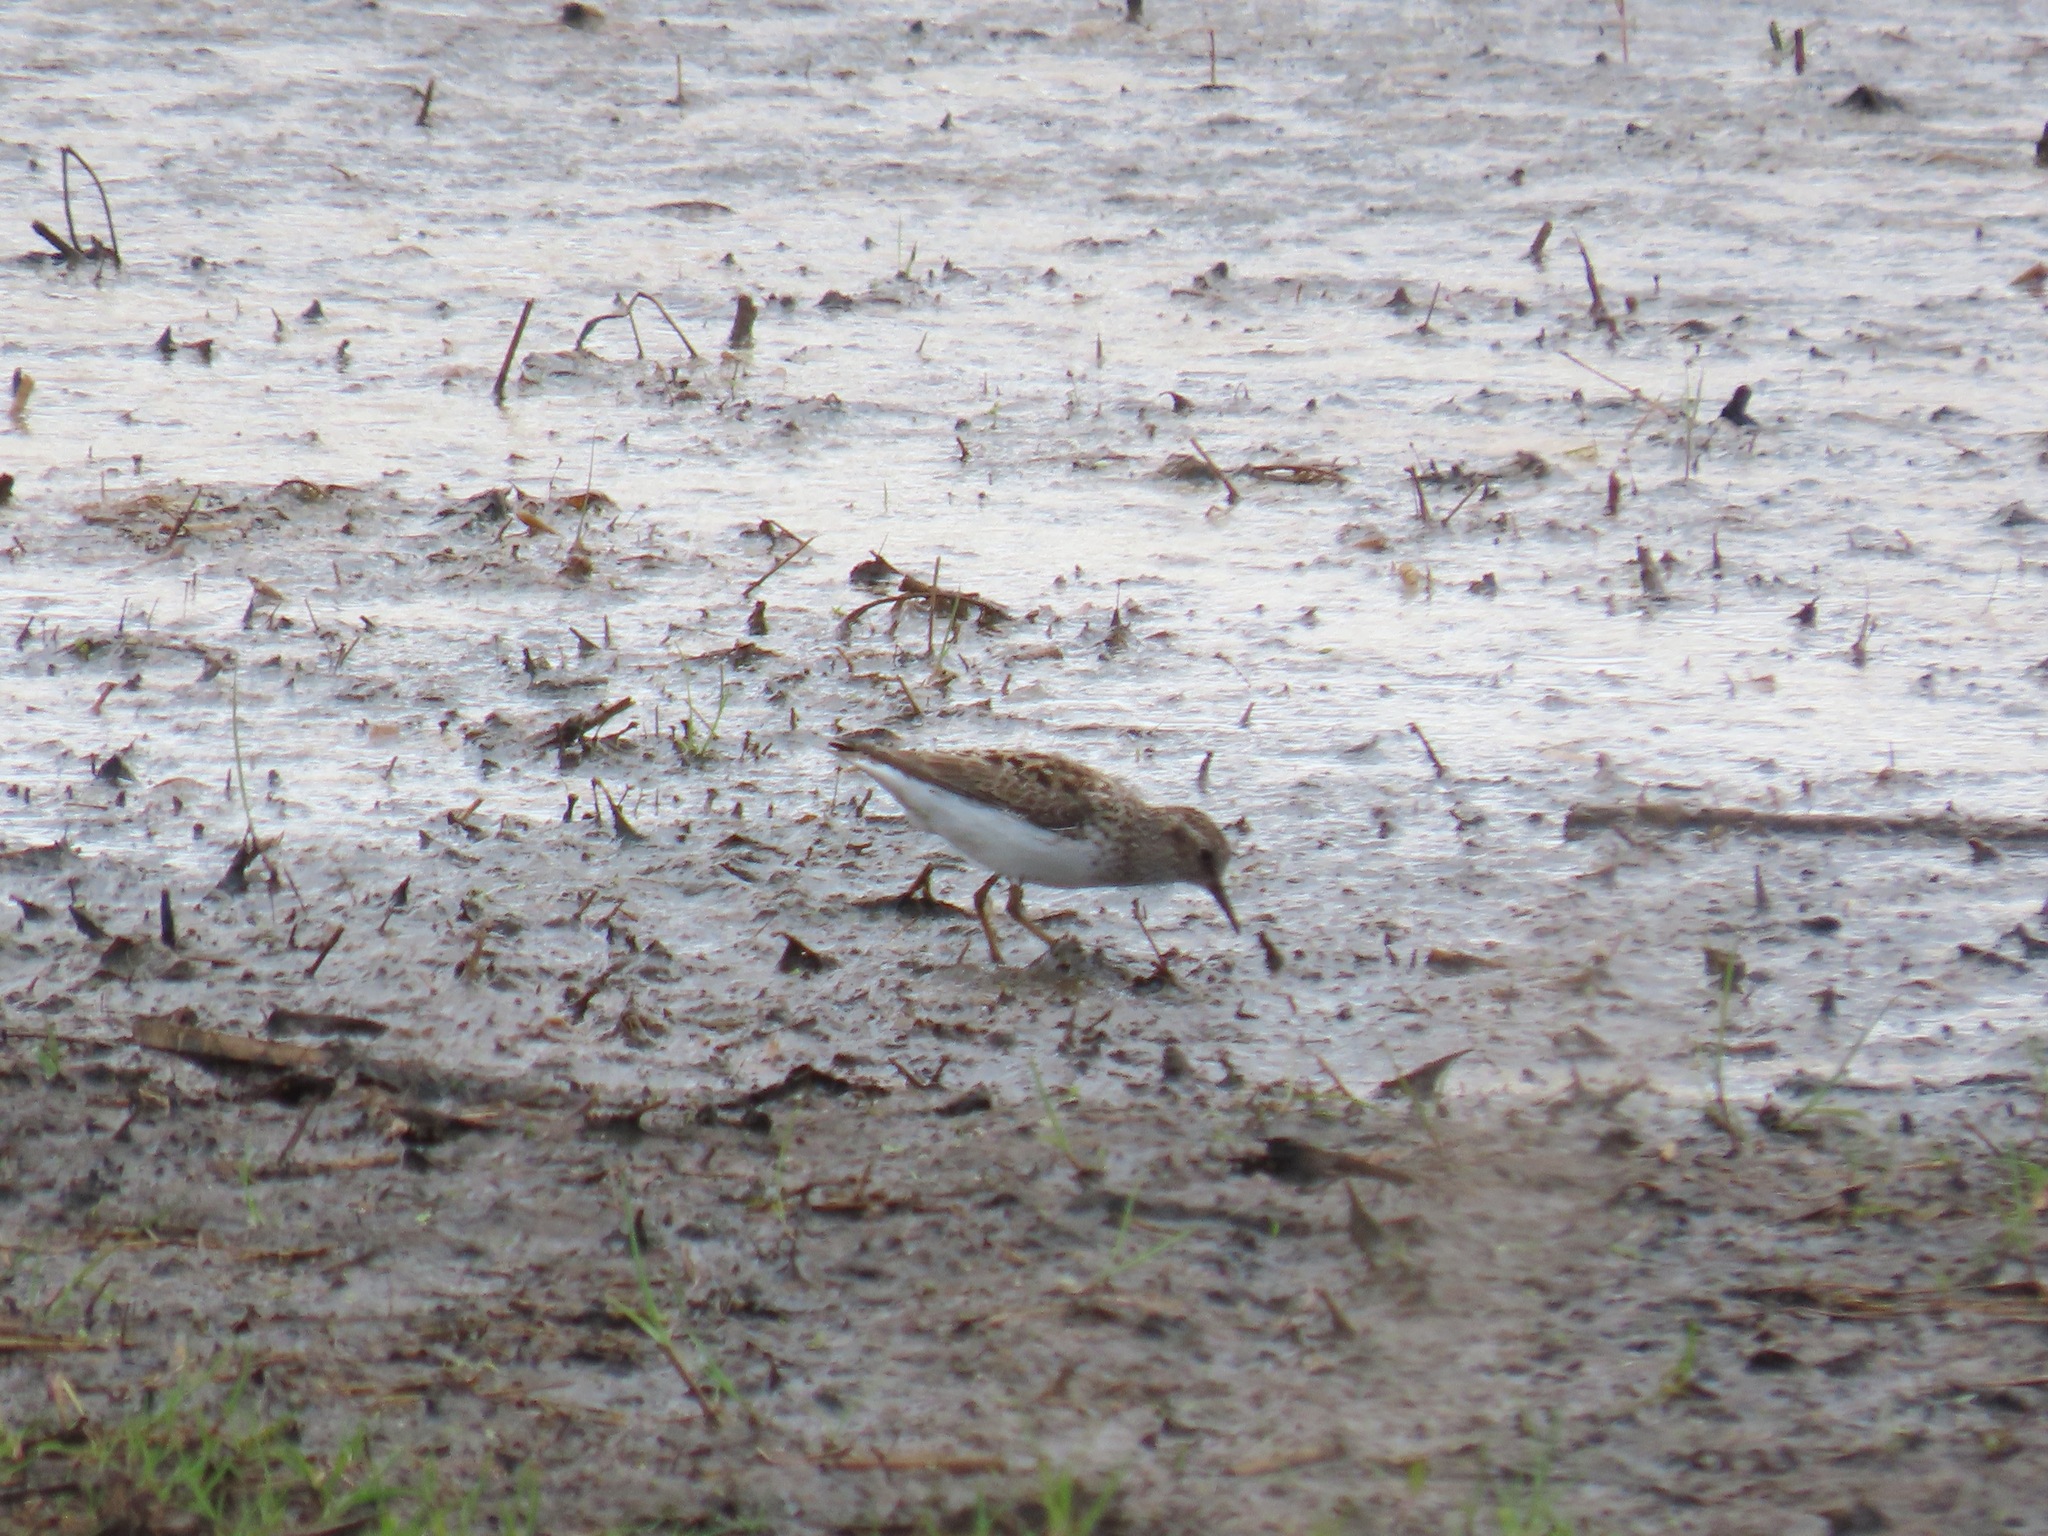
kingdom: Animalia
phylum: Chordata
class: Aves
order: Charadriiformes
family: Scolopacidae
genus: Calidris
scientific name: Calidris minutilla
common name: Least sandpiper
